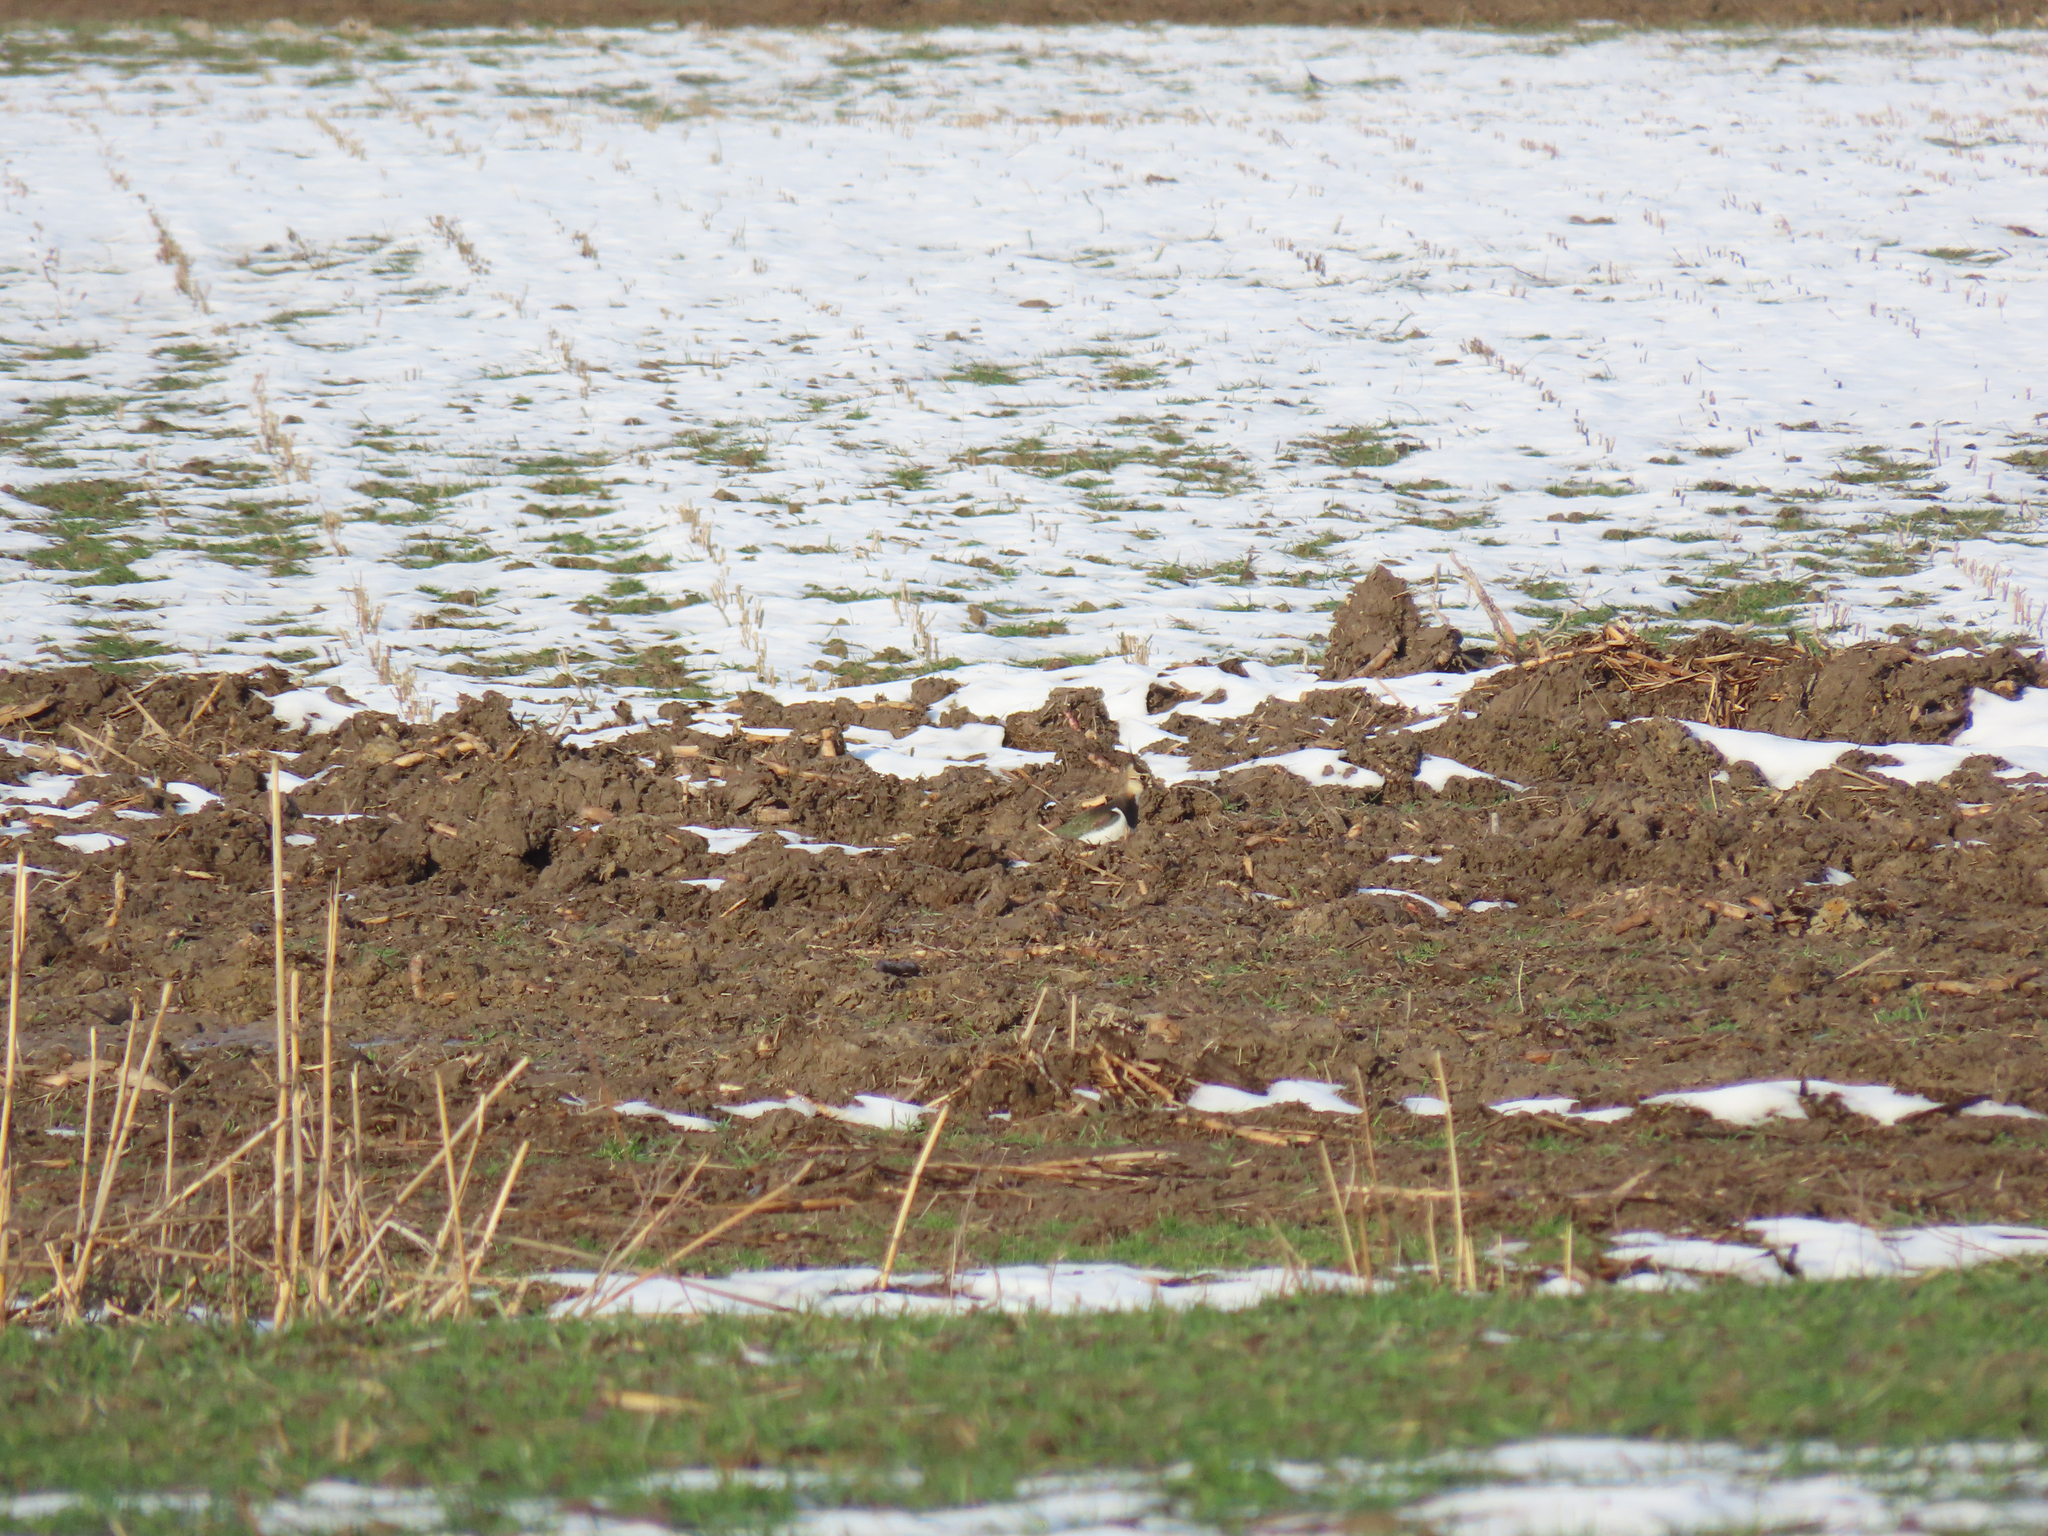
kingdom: Animalia
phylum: Chordata
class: Aves
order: Charadriiformes
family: Charadriidae
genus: Vanellus
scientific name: Vanellus vanellus
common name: Northern lapwing
